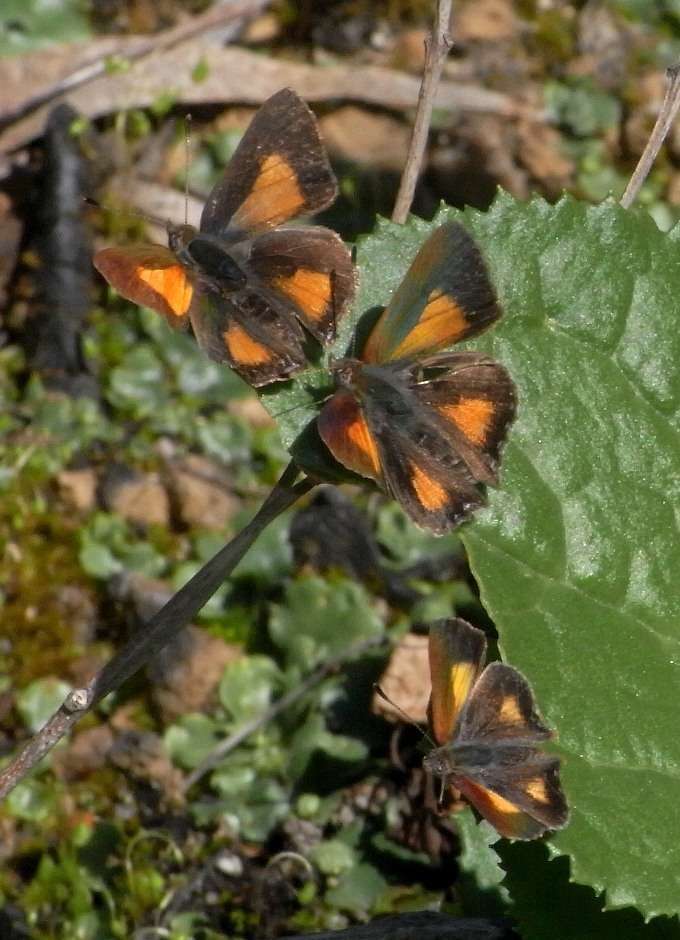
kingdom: Animalia
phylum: Arthropoda
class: Insecta
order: Lepidoptera
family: Lycaenidae
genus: Paralucia
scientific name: Paralucia aurifer
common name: Bright copper
